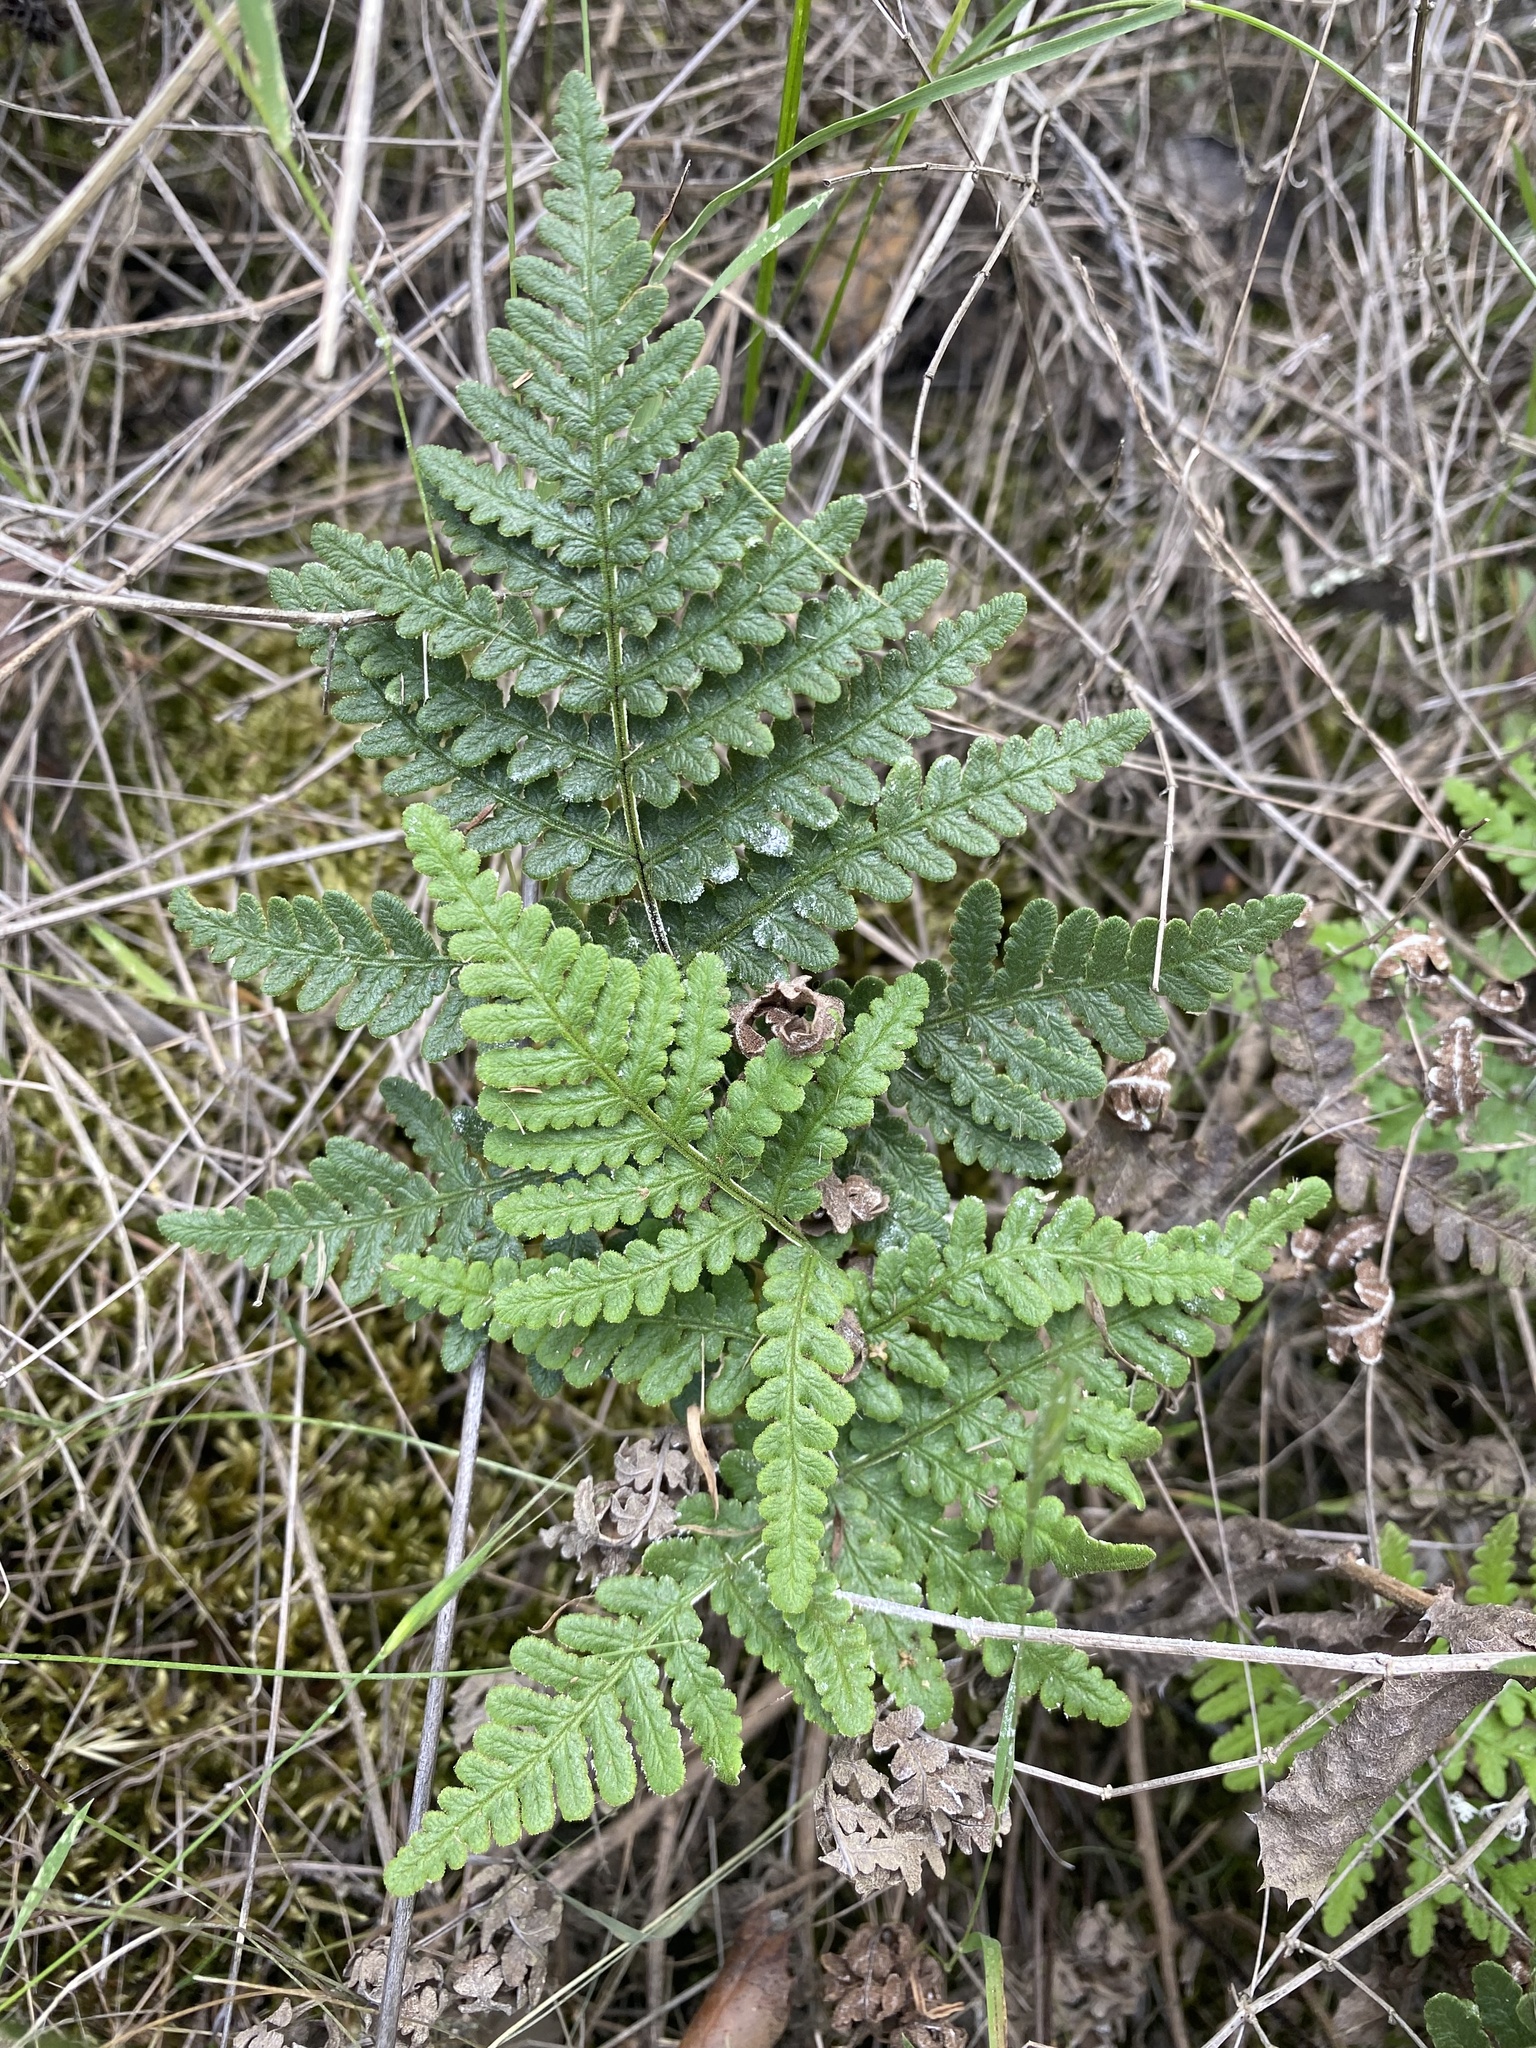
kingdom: Plantae
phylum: Tracheophyta
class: Polypodiopsida
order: Polypodiales
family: Pteridaceae
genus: Pentagramma
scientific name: Pentagramma glanduloviscida
